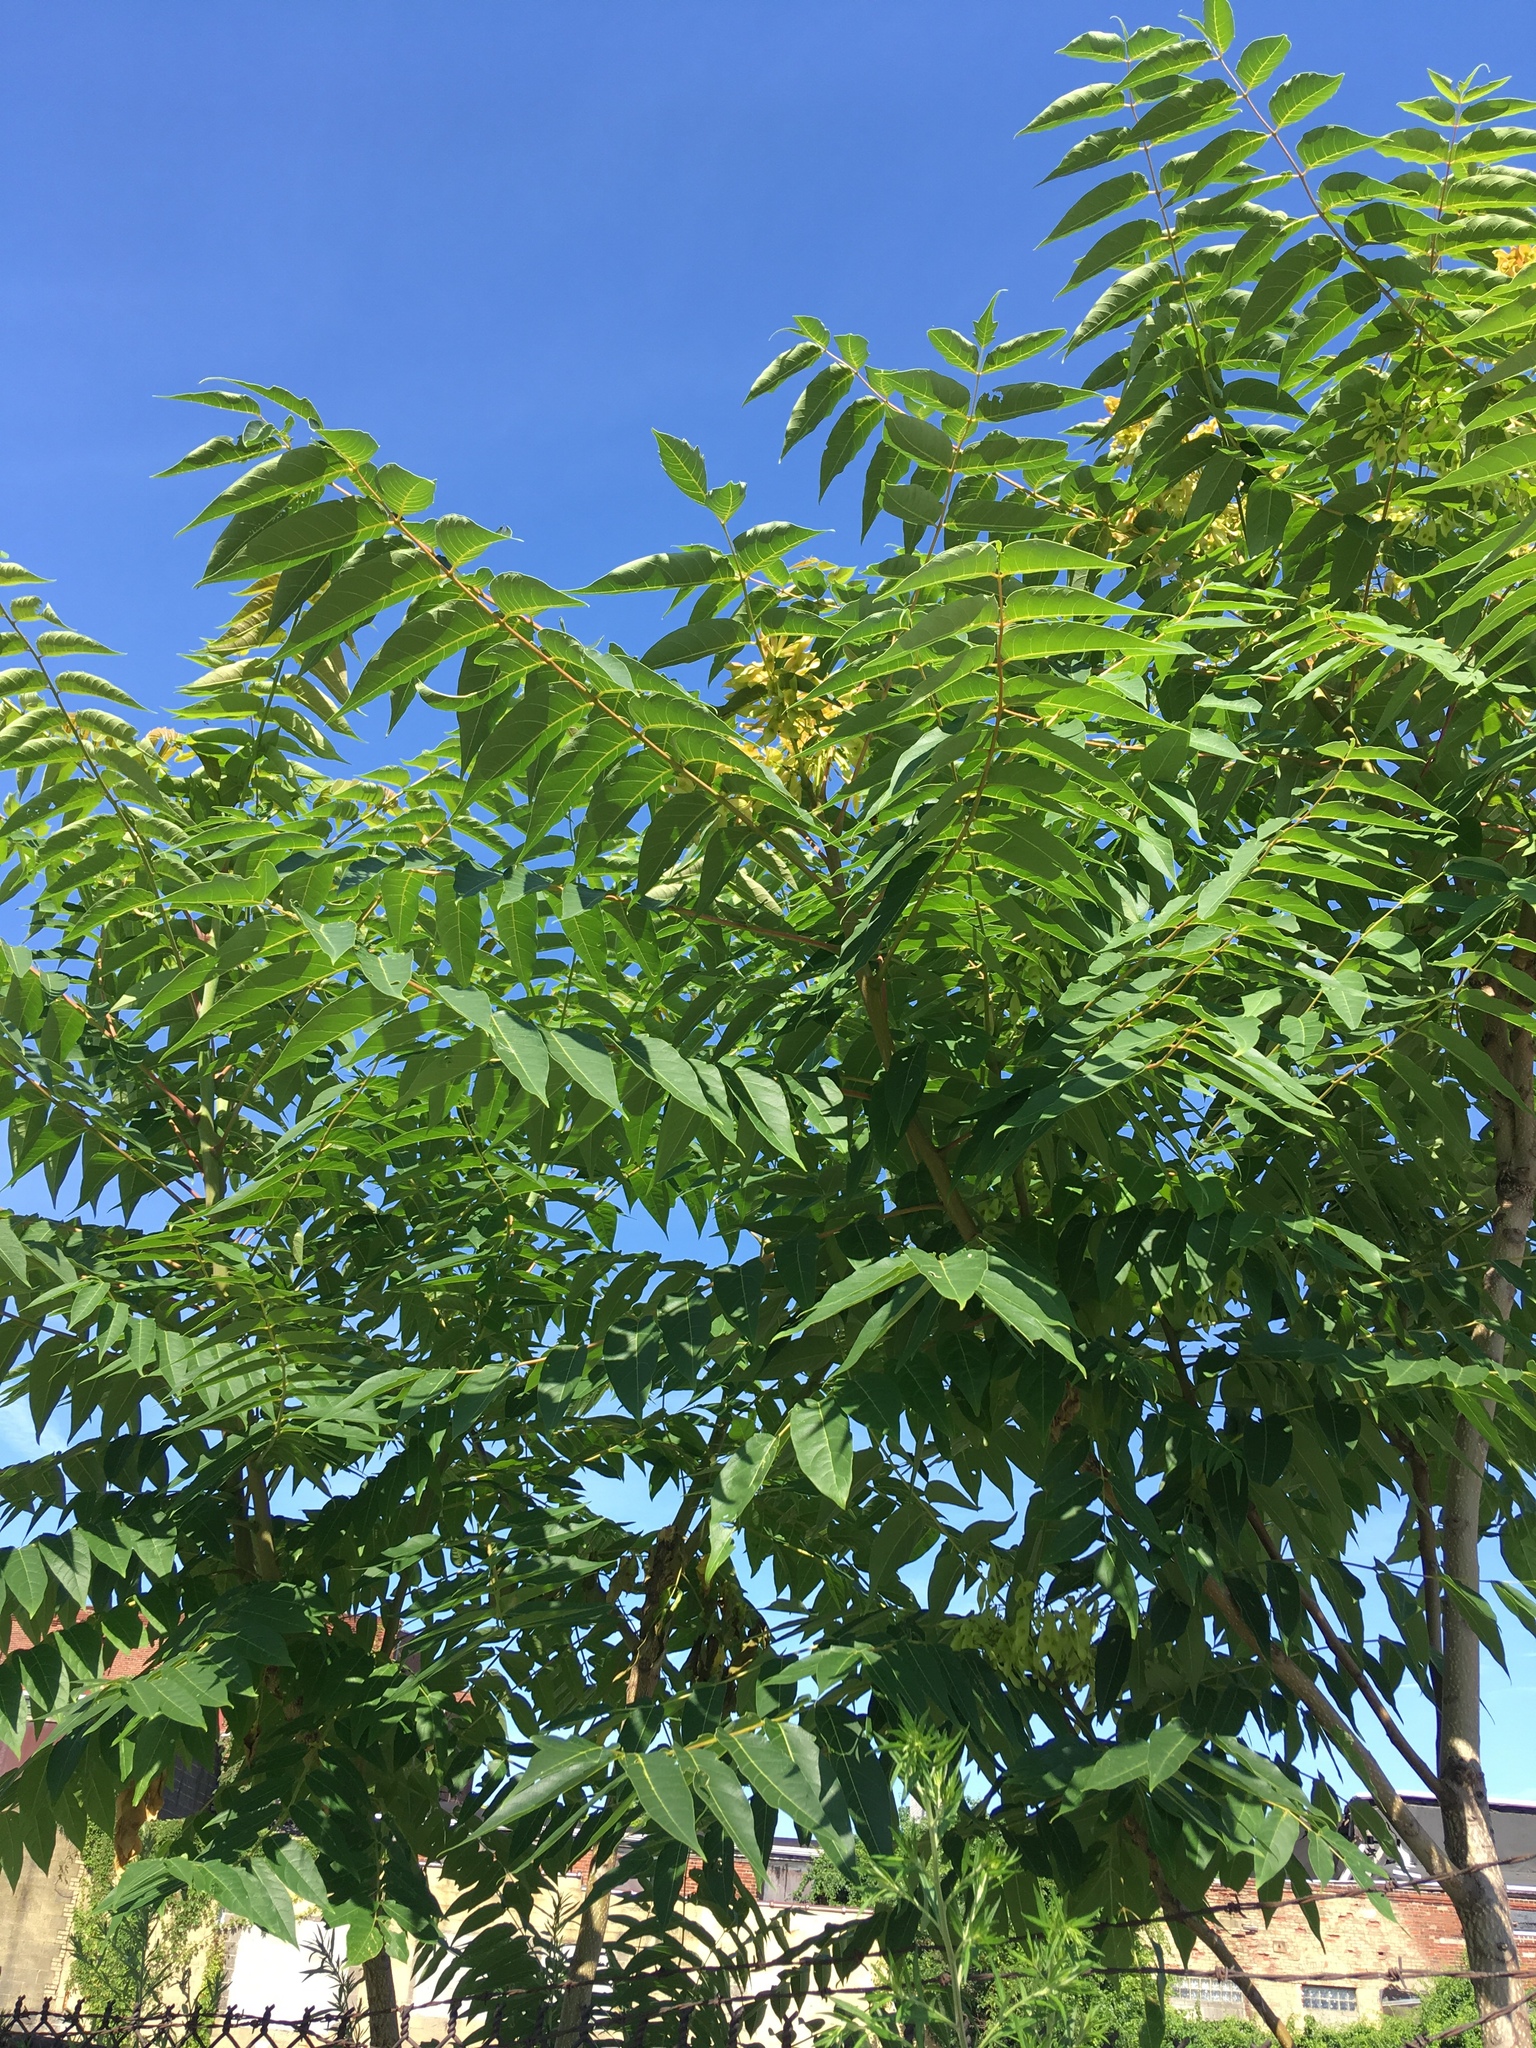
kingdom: Plantae
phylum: Tracheophyta
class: Magnoliopsida
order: Sapindales
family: Simaroubaceae
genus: Ailanthus
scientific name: Ailanthus altissima
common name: Tree-of-heaven
